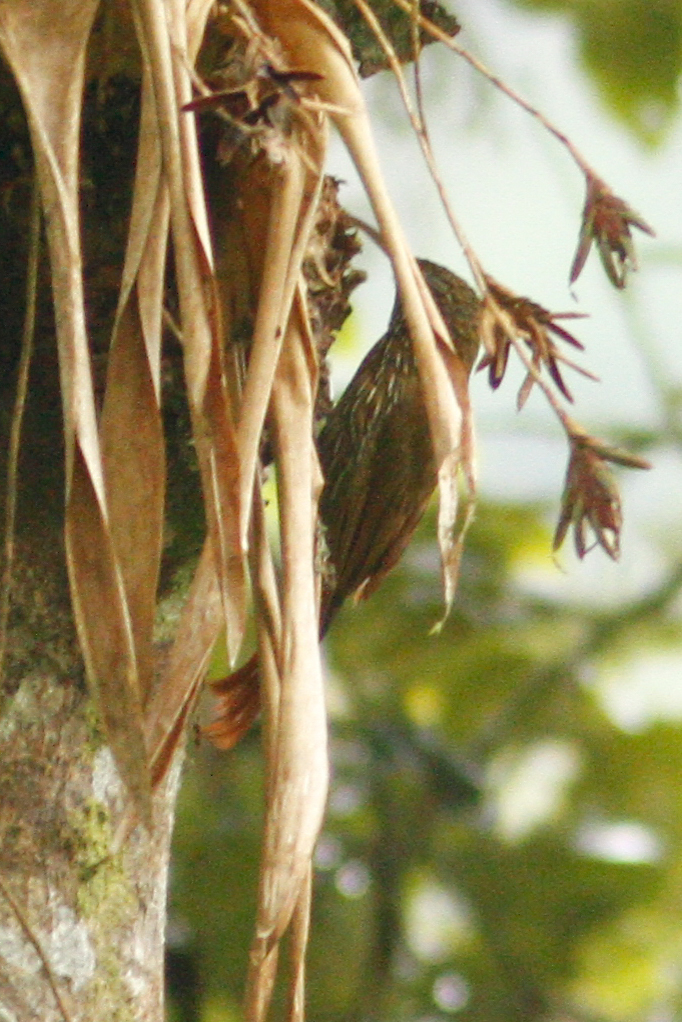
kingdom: Animalia
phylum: Chordata
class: Aves
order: Passeriformes
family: Furnariidae
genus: Lepidocolaptes
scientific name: Lepidocolaptes lacrymiger
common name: Montane woodcreeper
